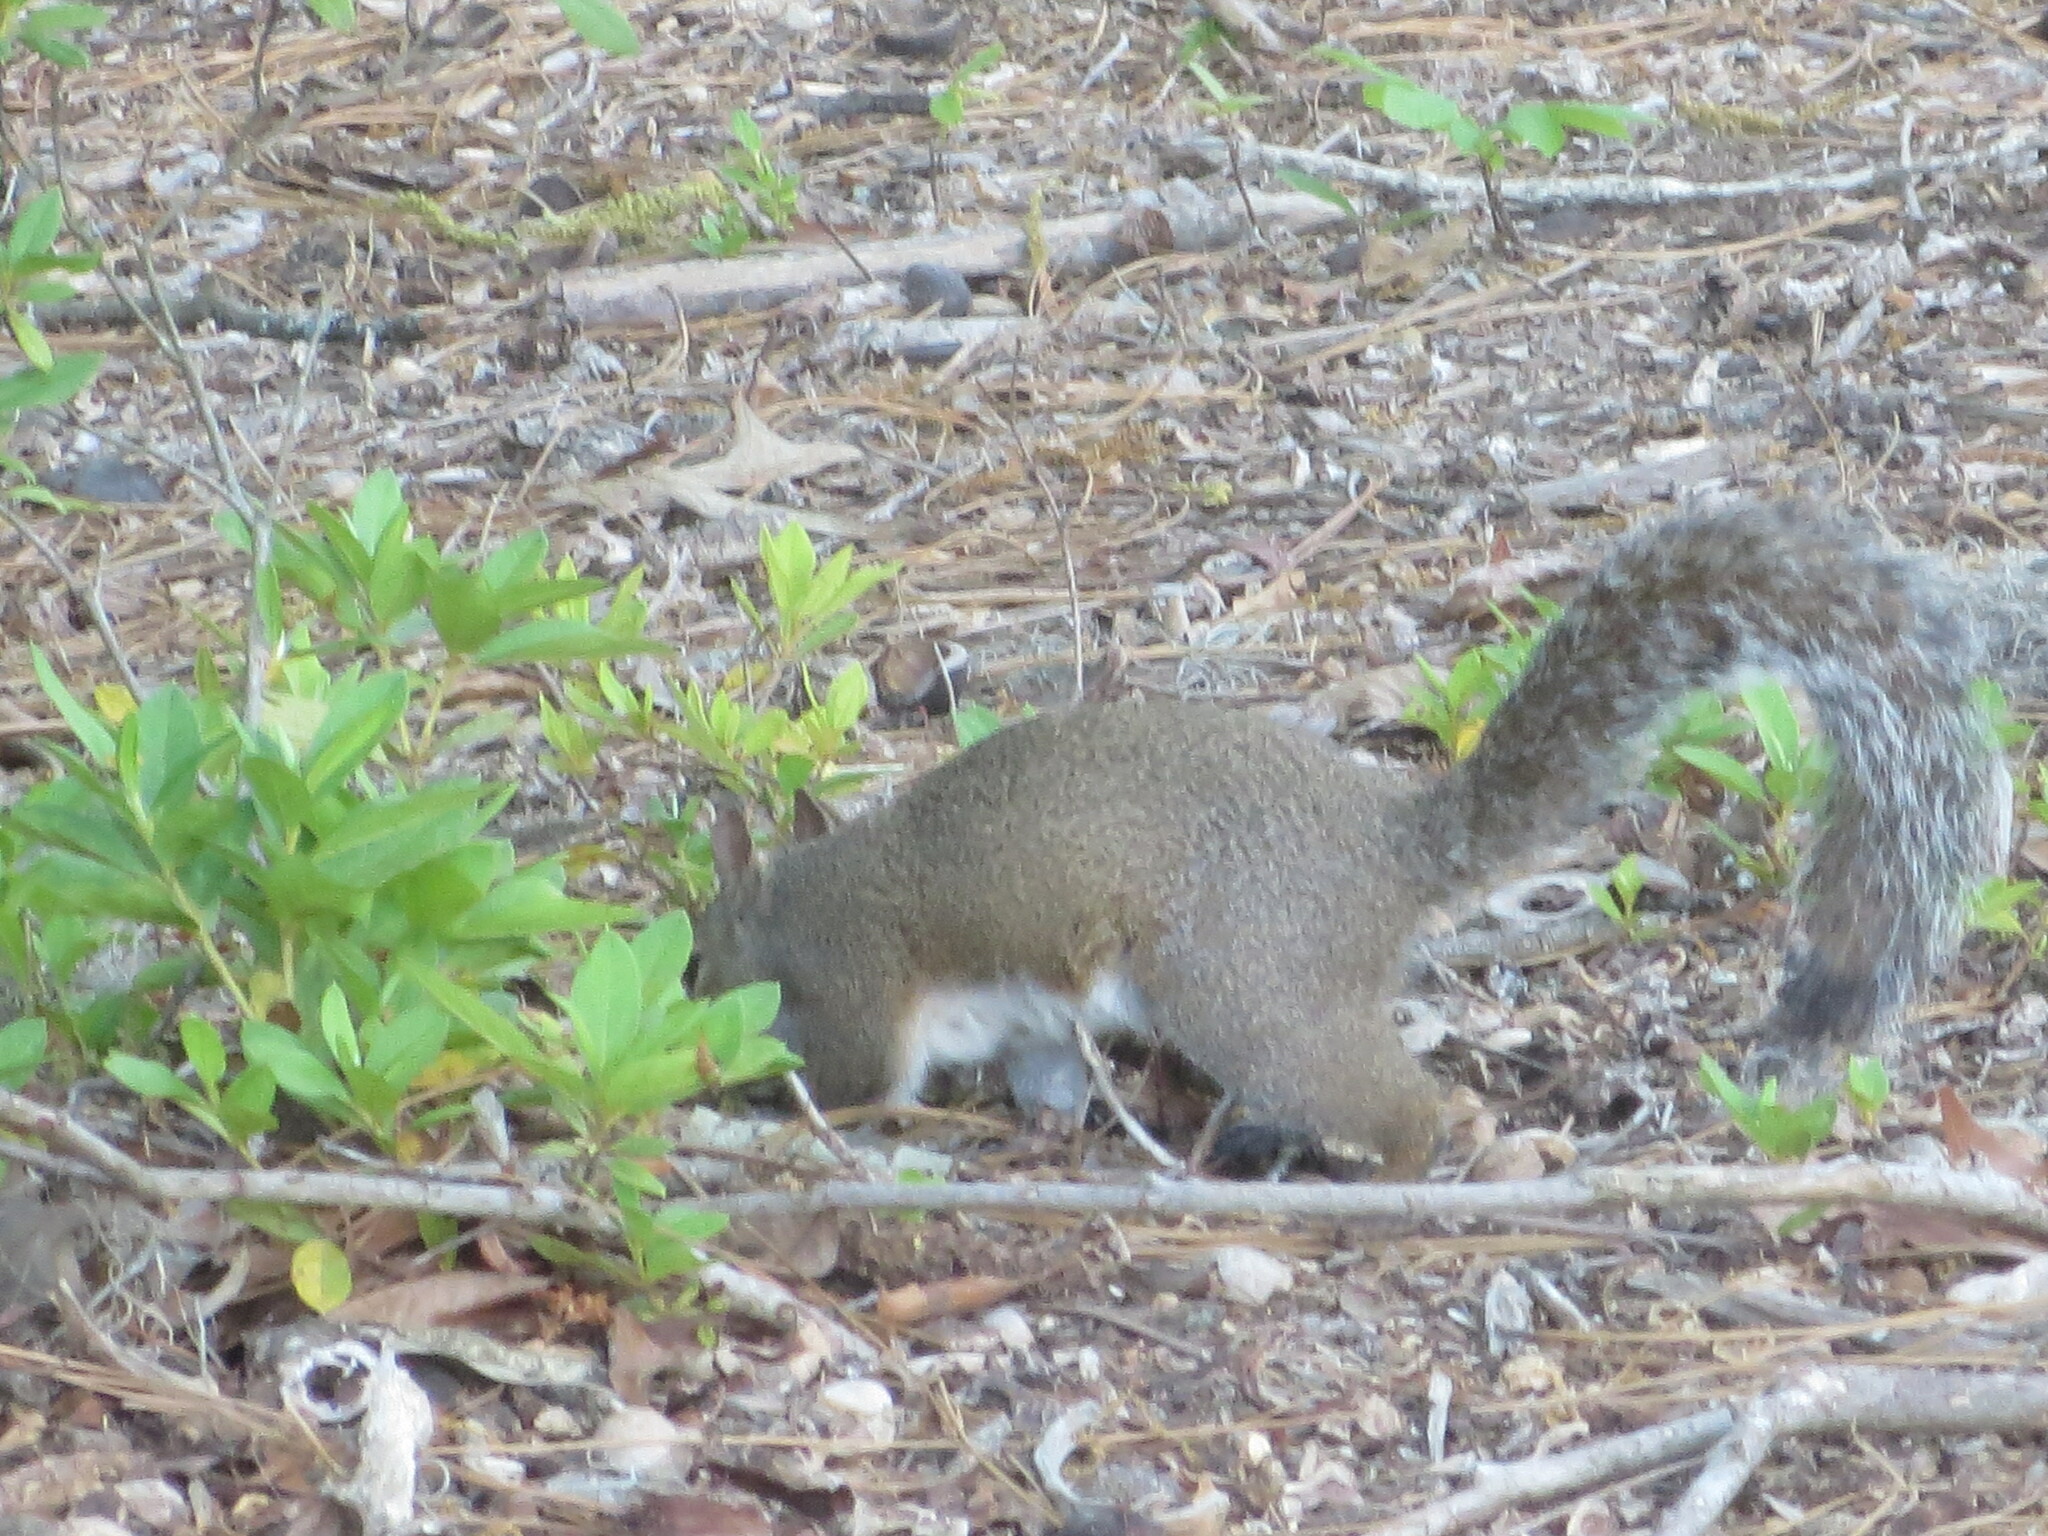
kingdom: Animalia
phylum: Chordata
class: Mammalia
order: Rodentia
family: Sciuridae
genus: Sciurus
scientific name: Sciurus carolinensis
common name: Eastern gray squirrel
